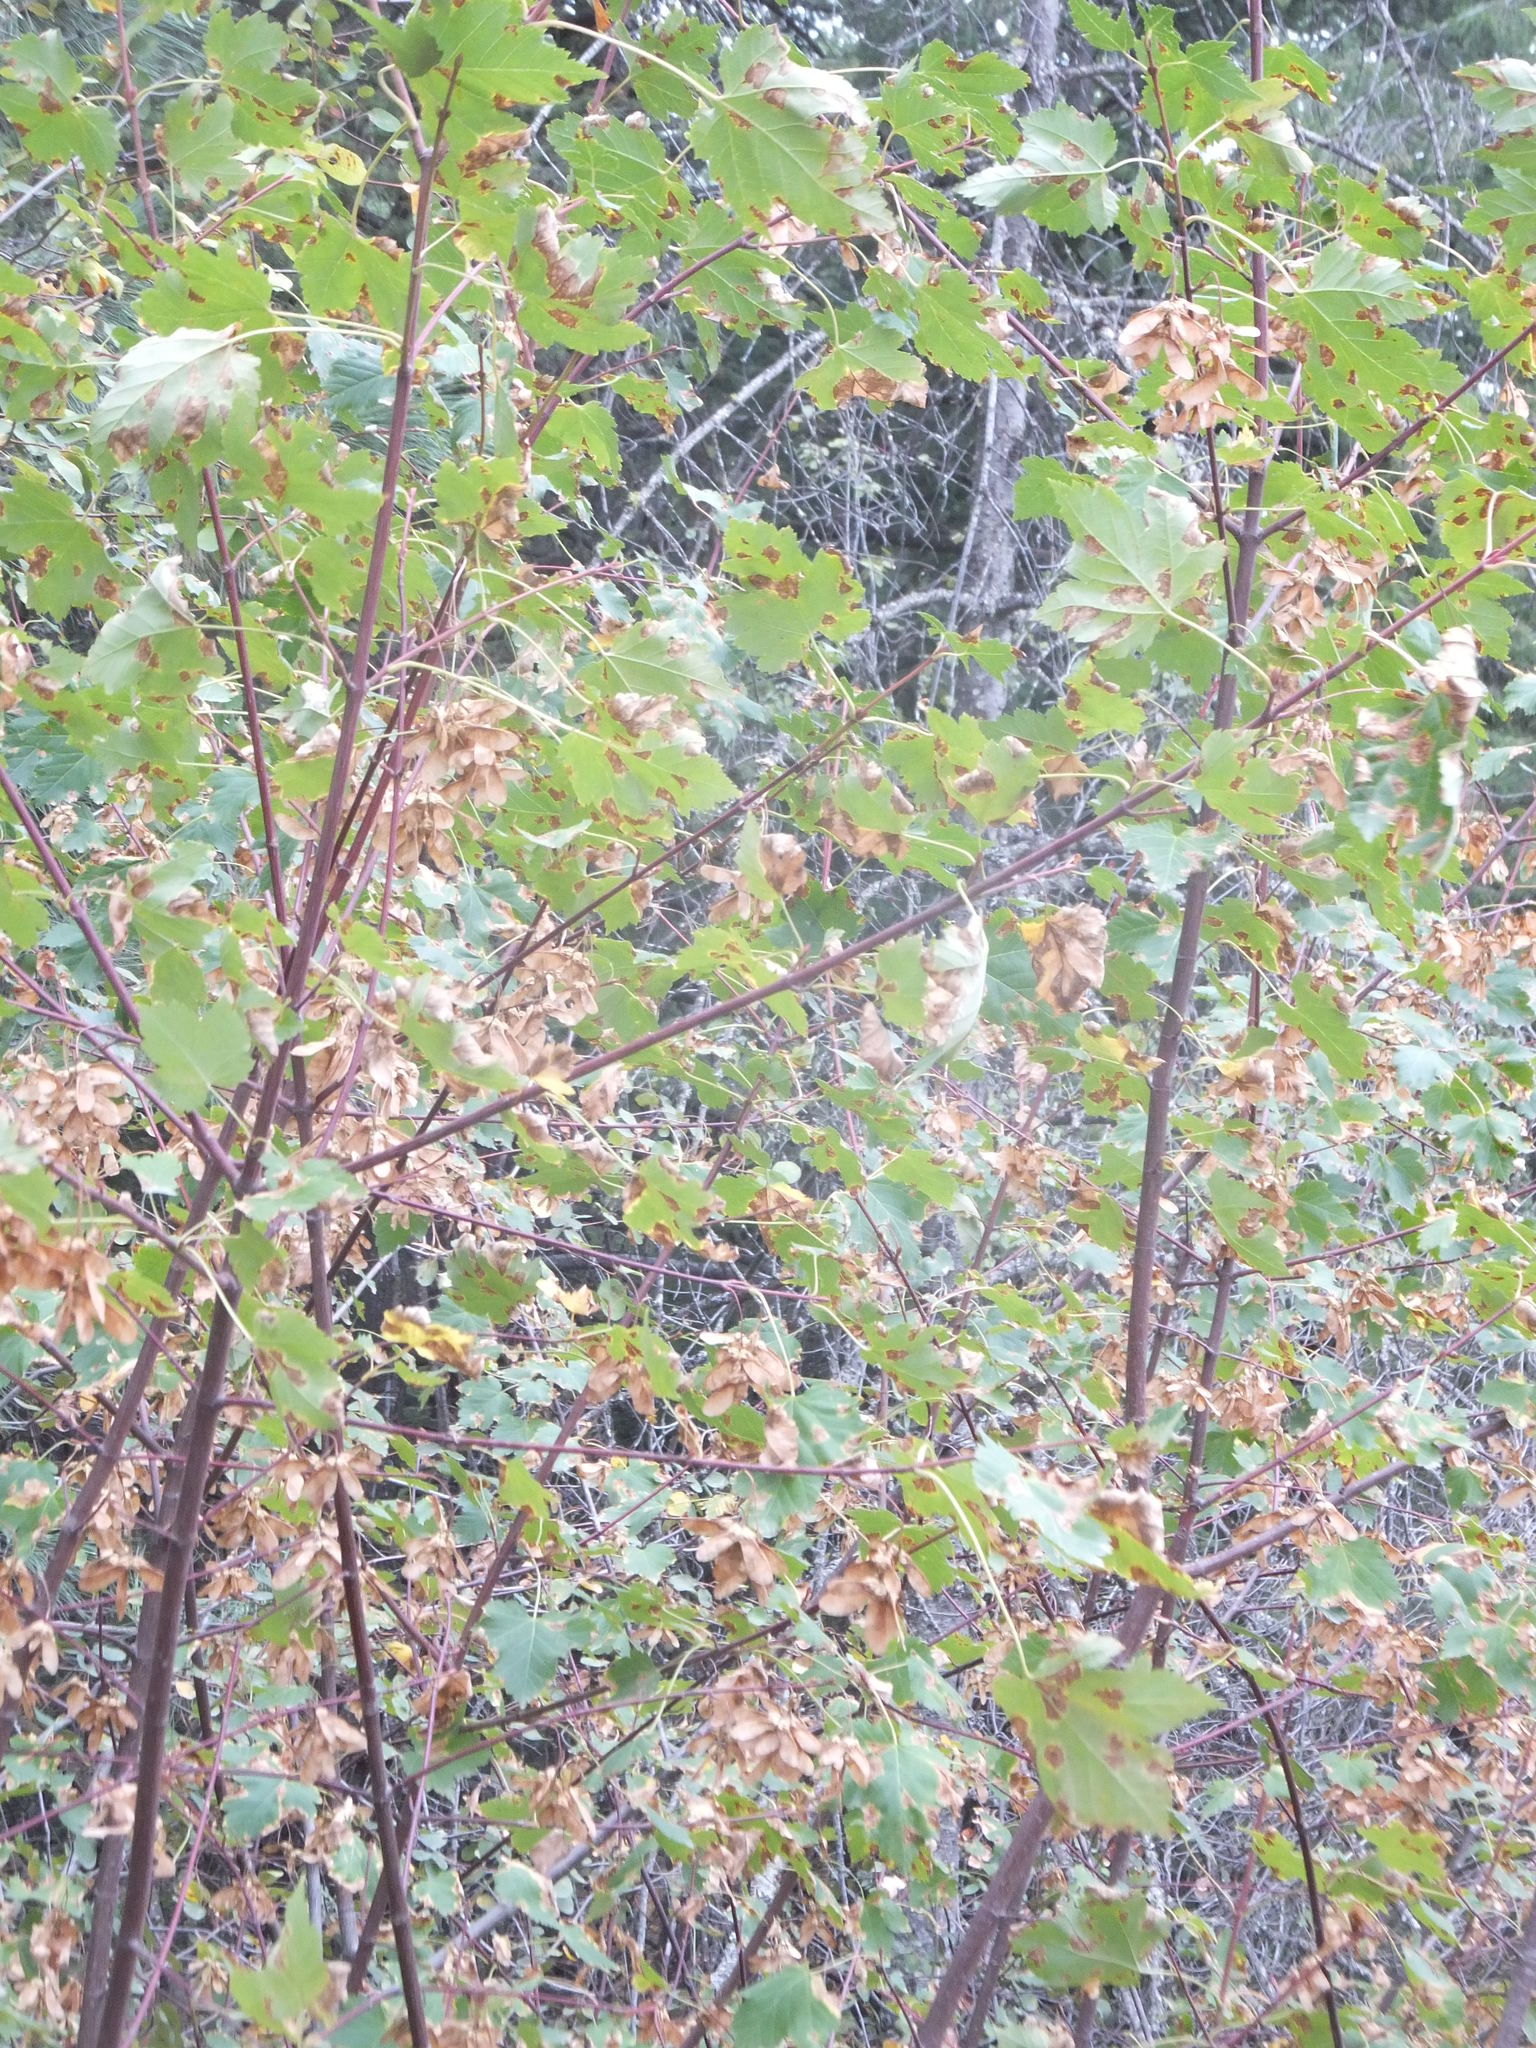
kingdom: Plantae
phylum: Tracheophyta
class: Magnoliopsida
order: Sapindales
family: Sapindaceae
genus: Acer
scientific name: Acer glabrum
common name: Rocky mountain maple
